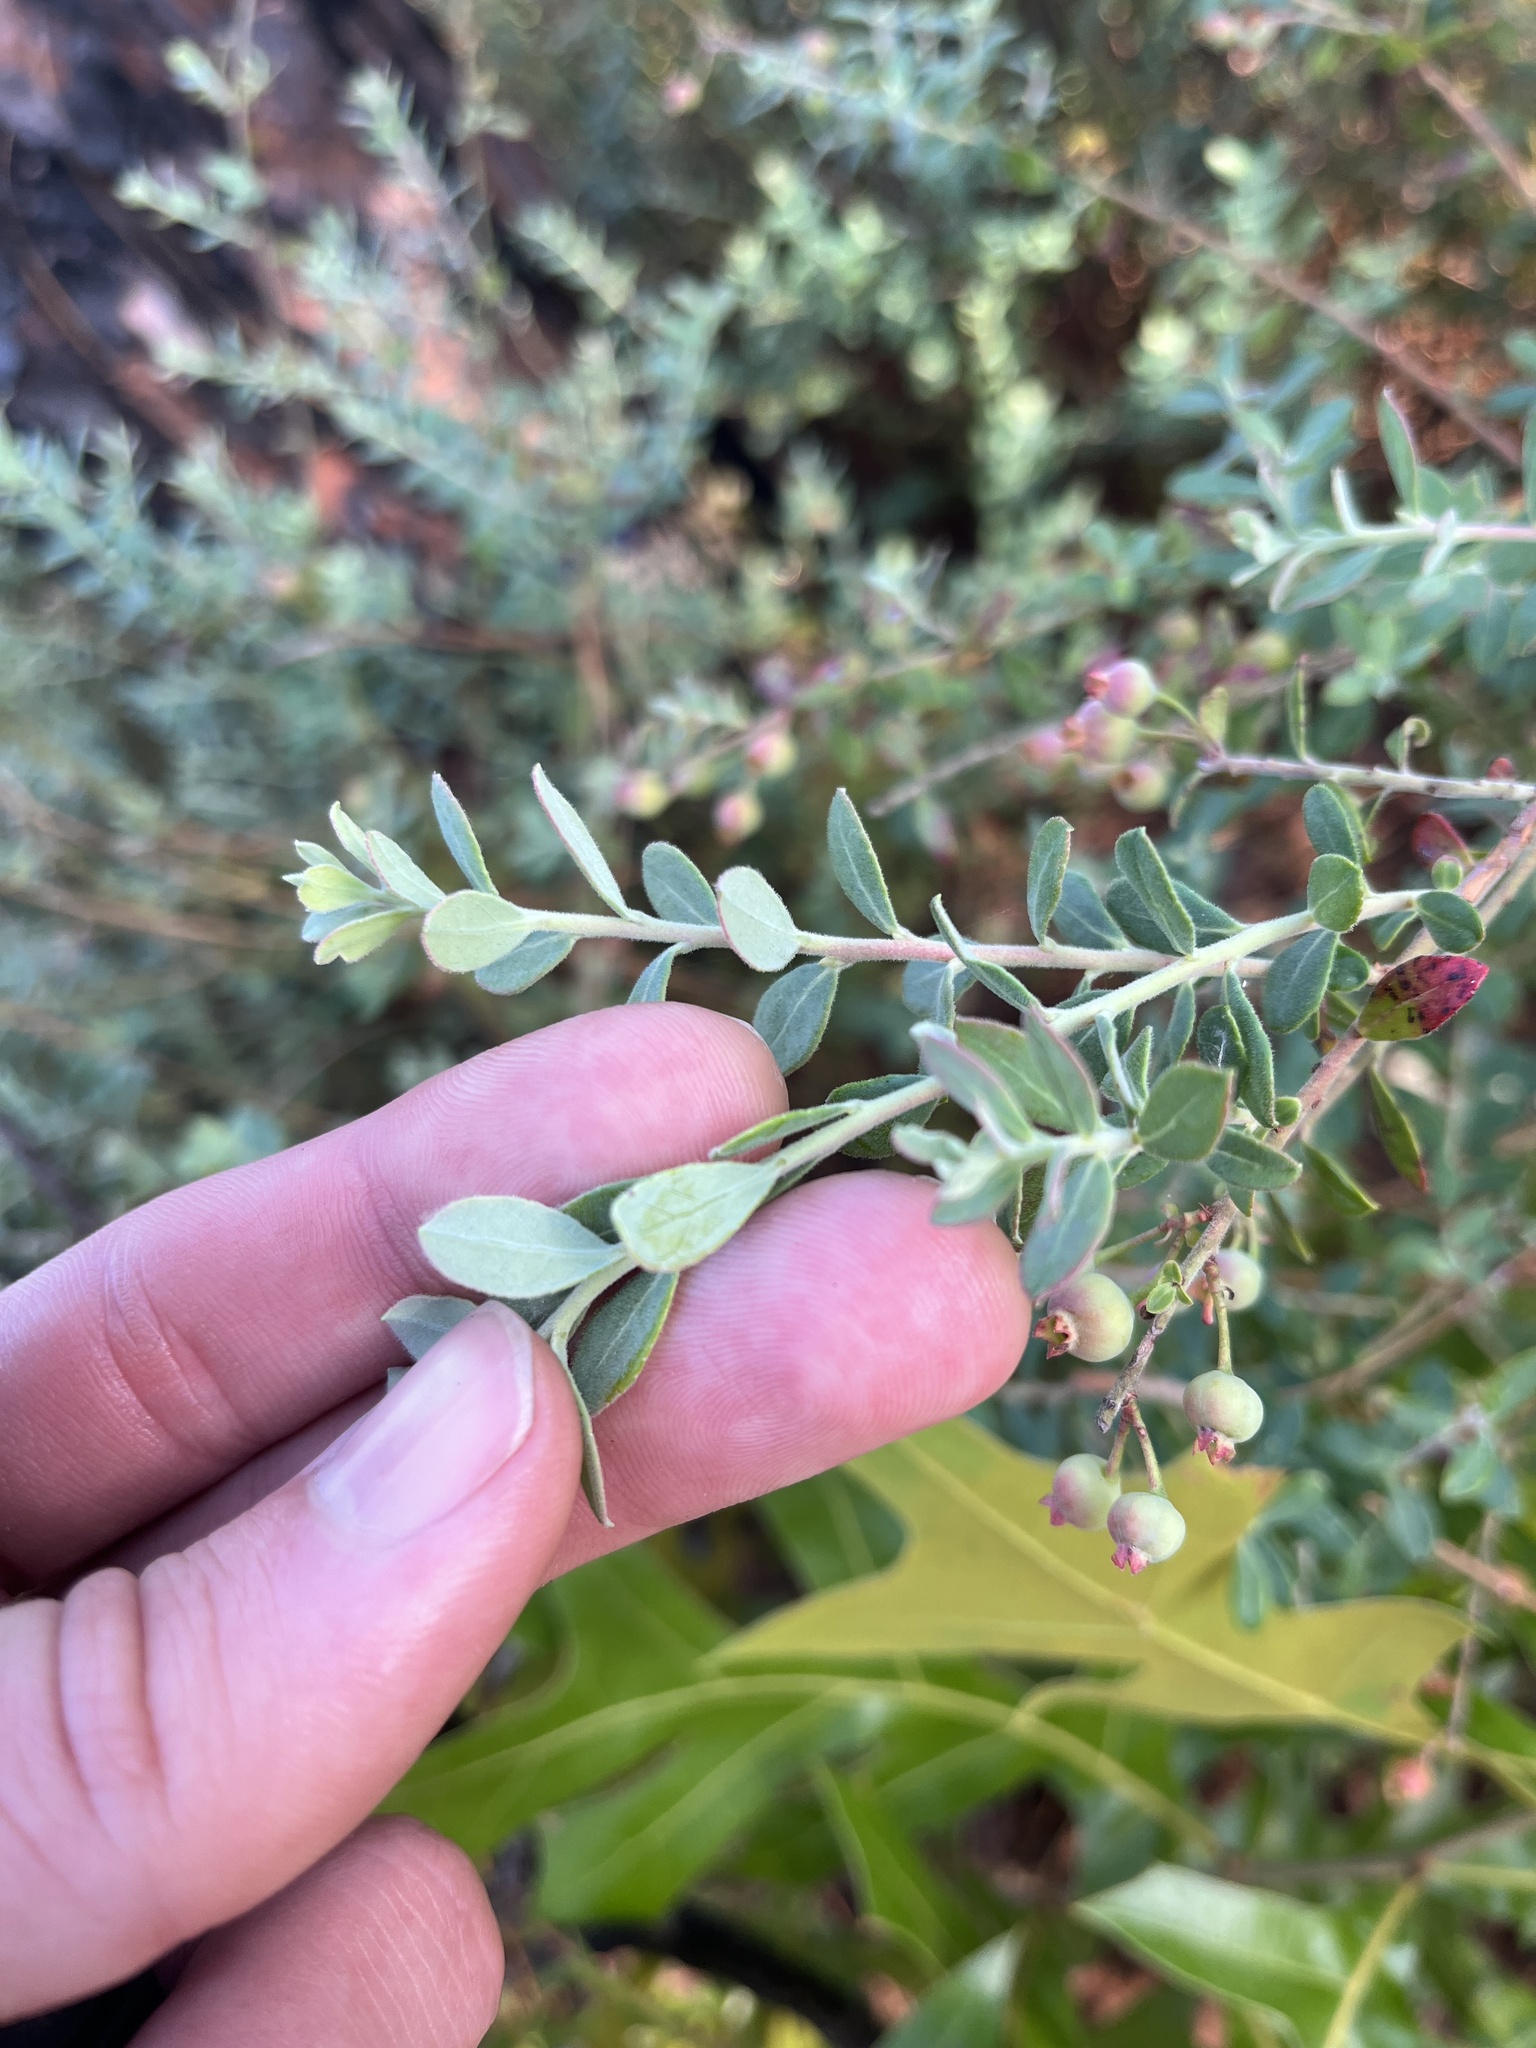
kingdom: Plantae
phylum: Tracheophyta
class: Magnoliopsida
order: Ericales
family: Ericaceae
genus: Vaccinium
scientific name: Vaccinium darrowii
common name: Darrow's blueberry
